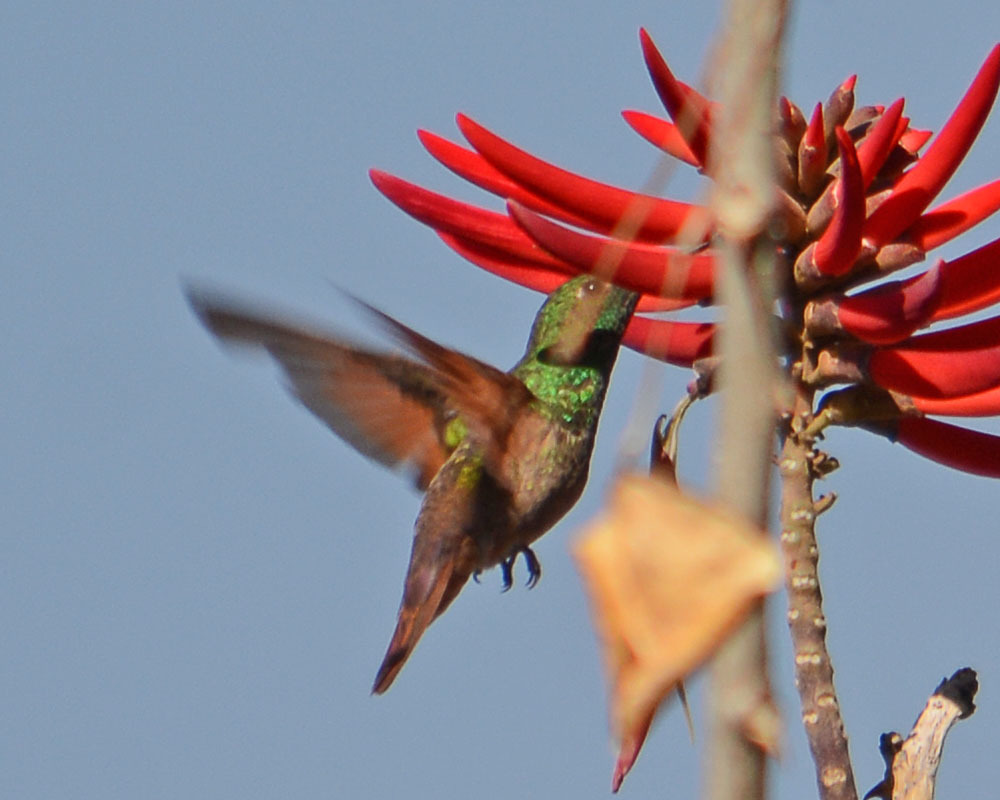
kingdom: Animalia
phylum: Chordata
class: Aves
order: Apodiformes
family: Trochilidae
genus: Saucerottia
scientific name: Saucerottia beryllina
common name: Berylline hummingbird
